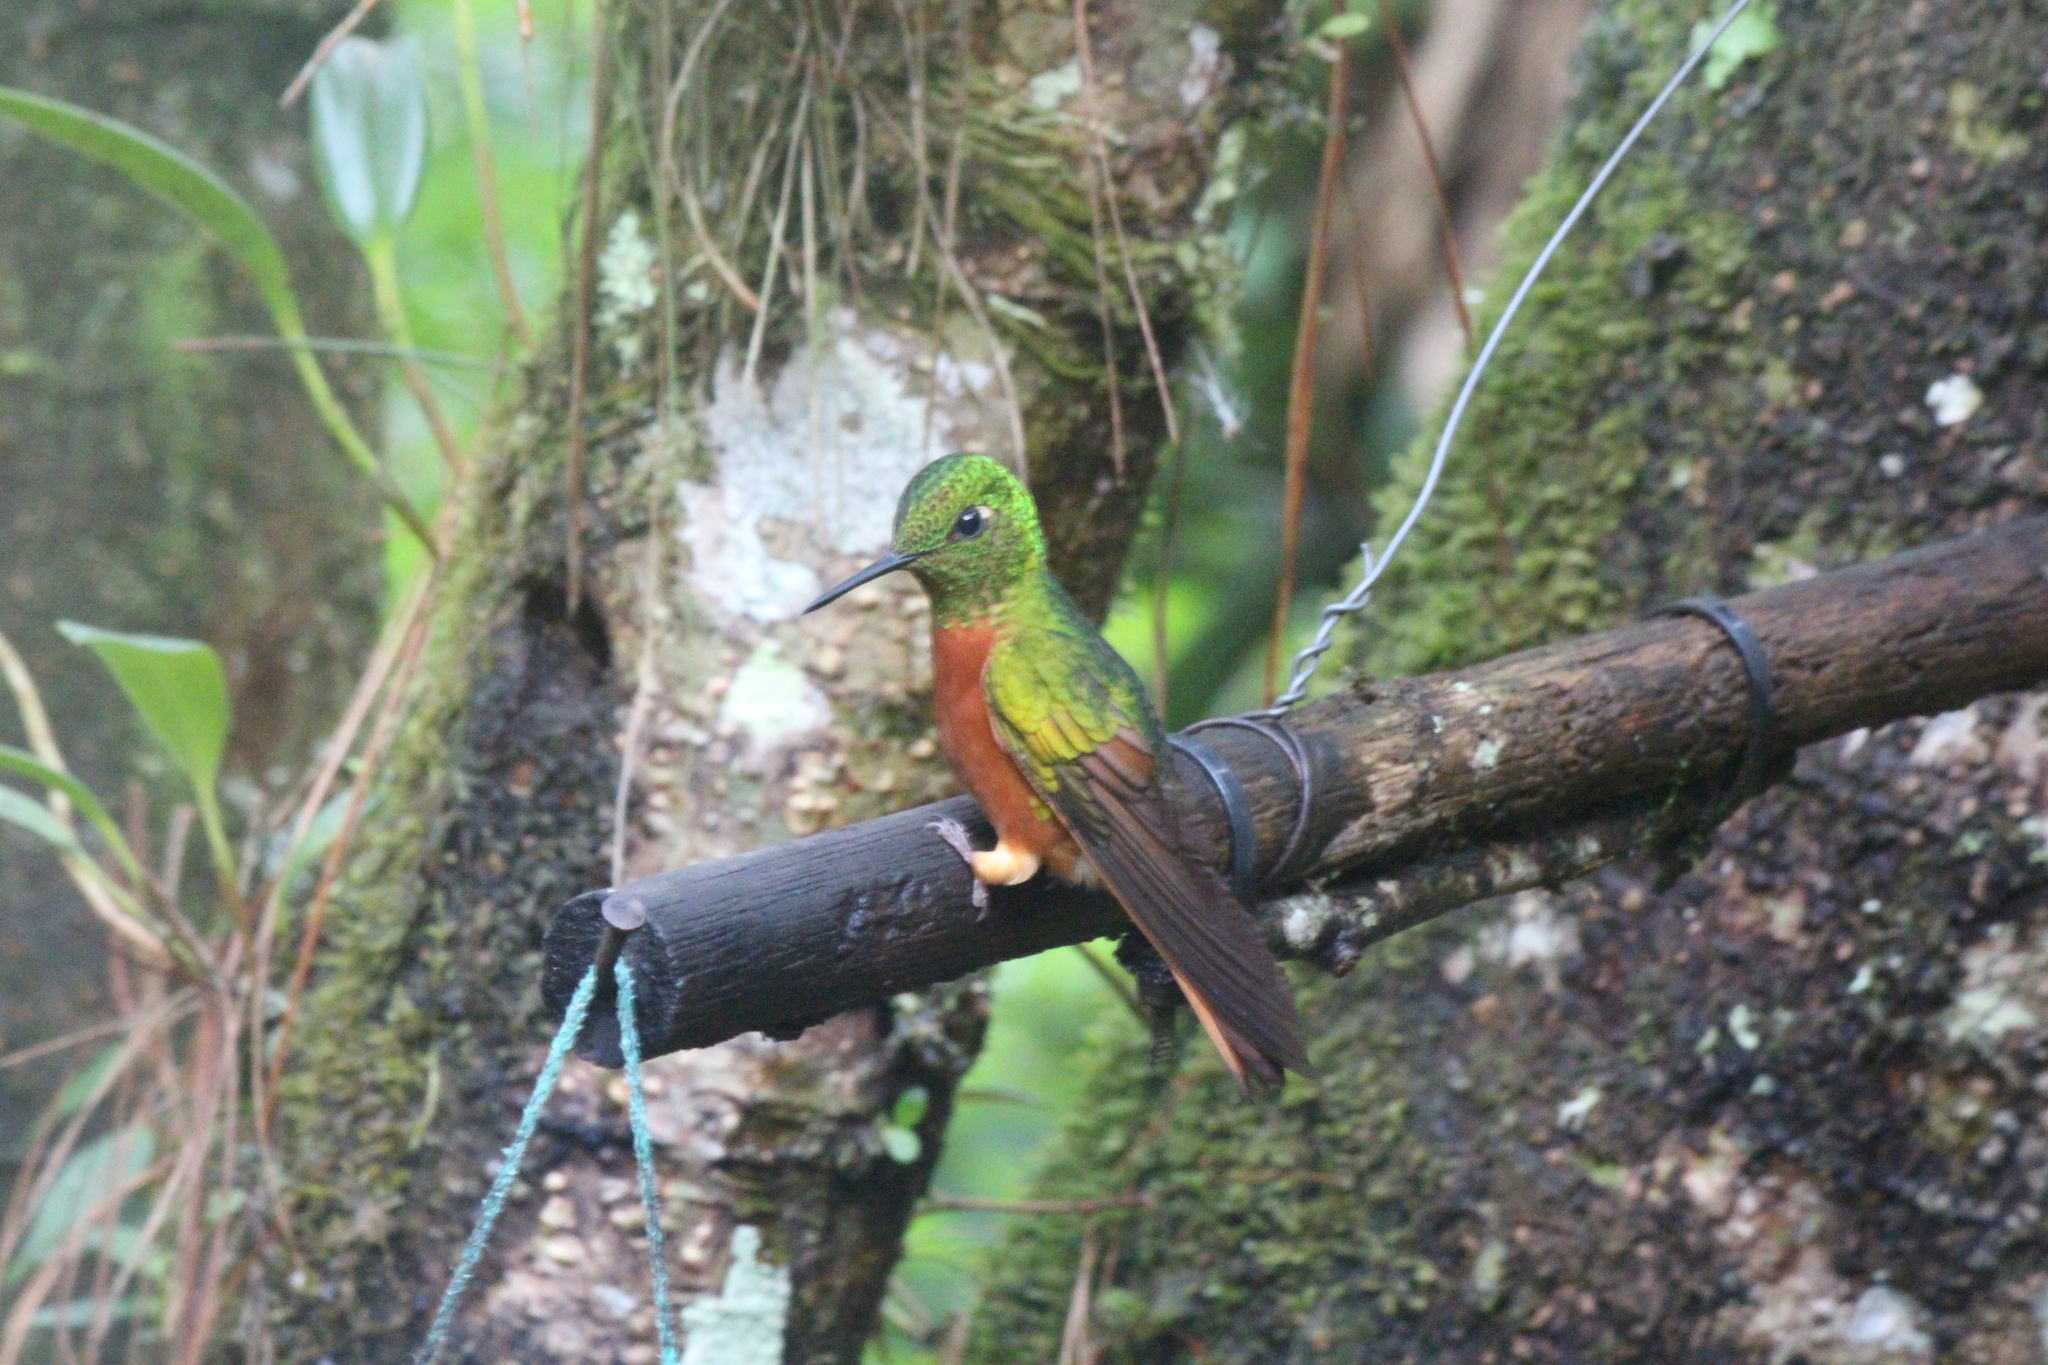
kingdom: Animalia
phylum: Chordata
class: Aves
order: Apodiformes
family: Trochilidae
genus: Boissonneaua
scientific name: Boissonneaua matthewsii
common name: Chestnut-breasted coronet
